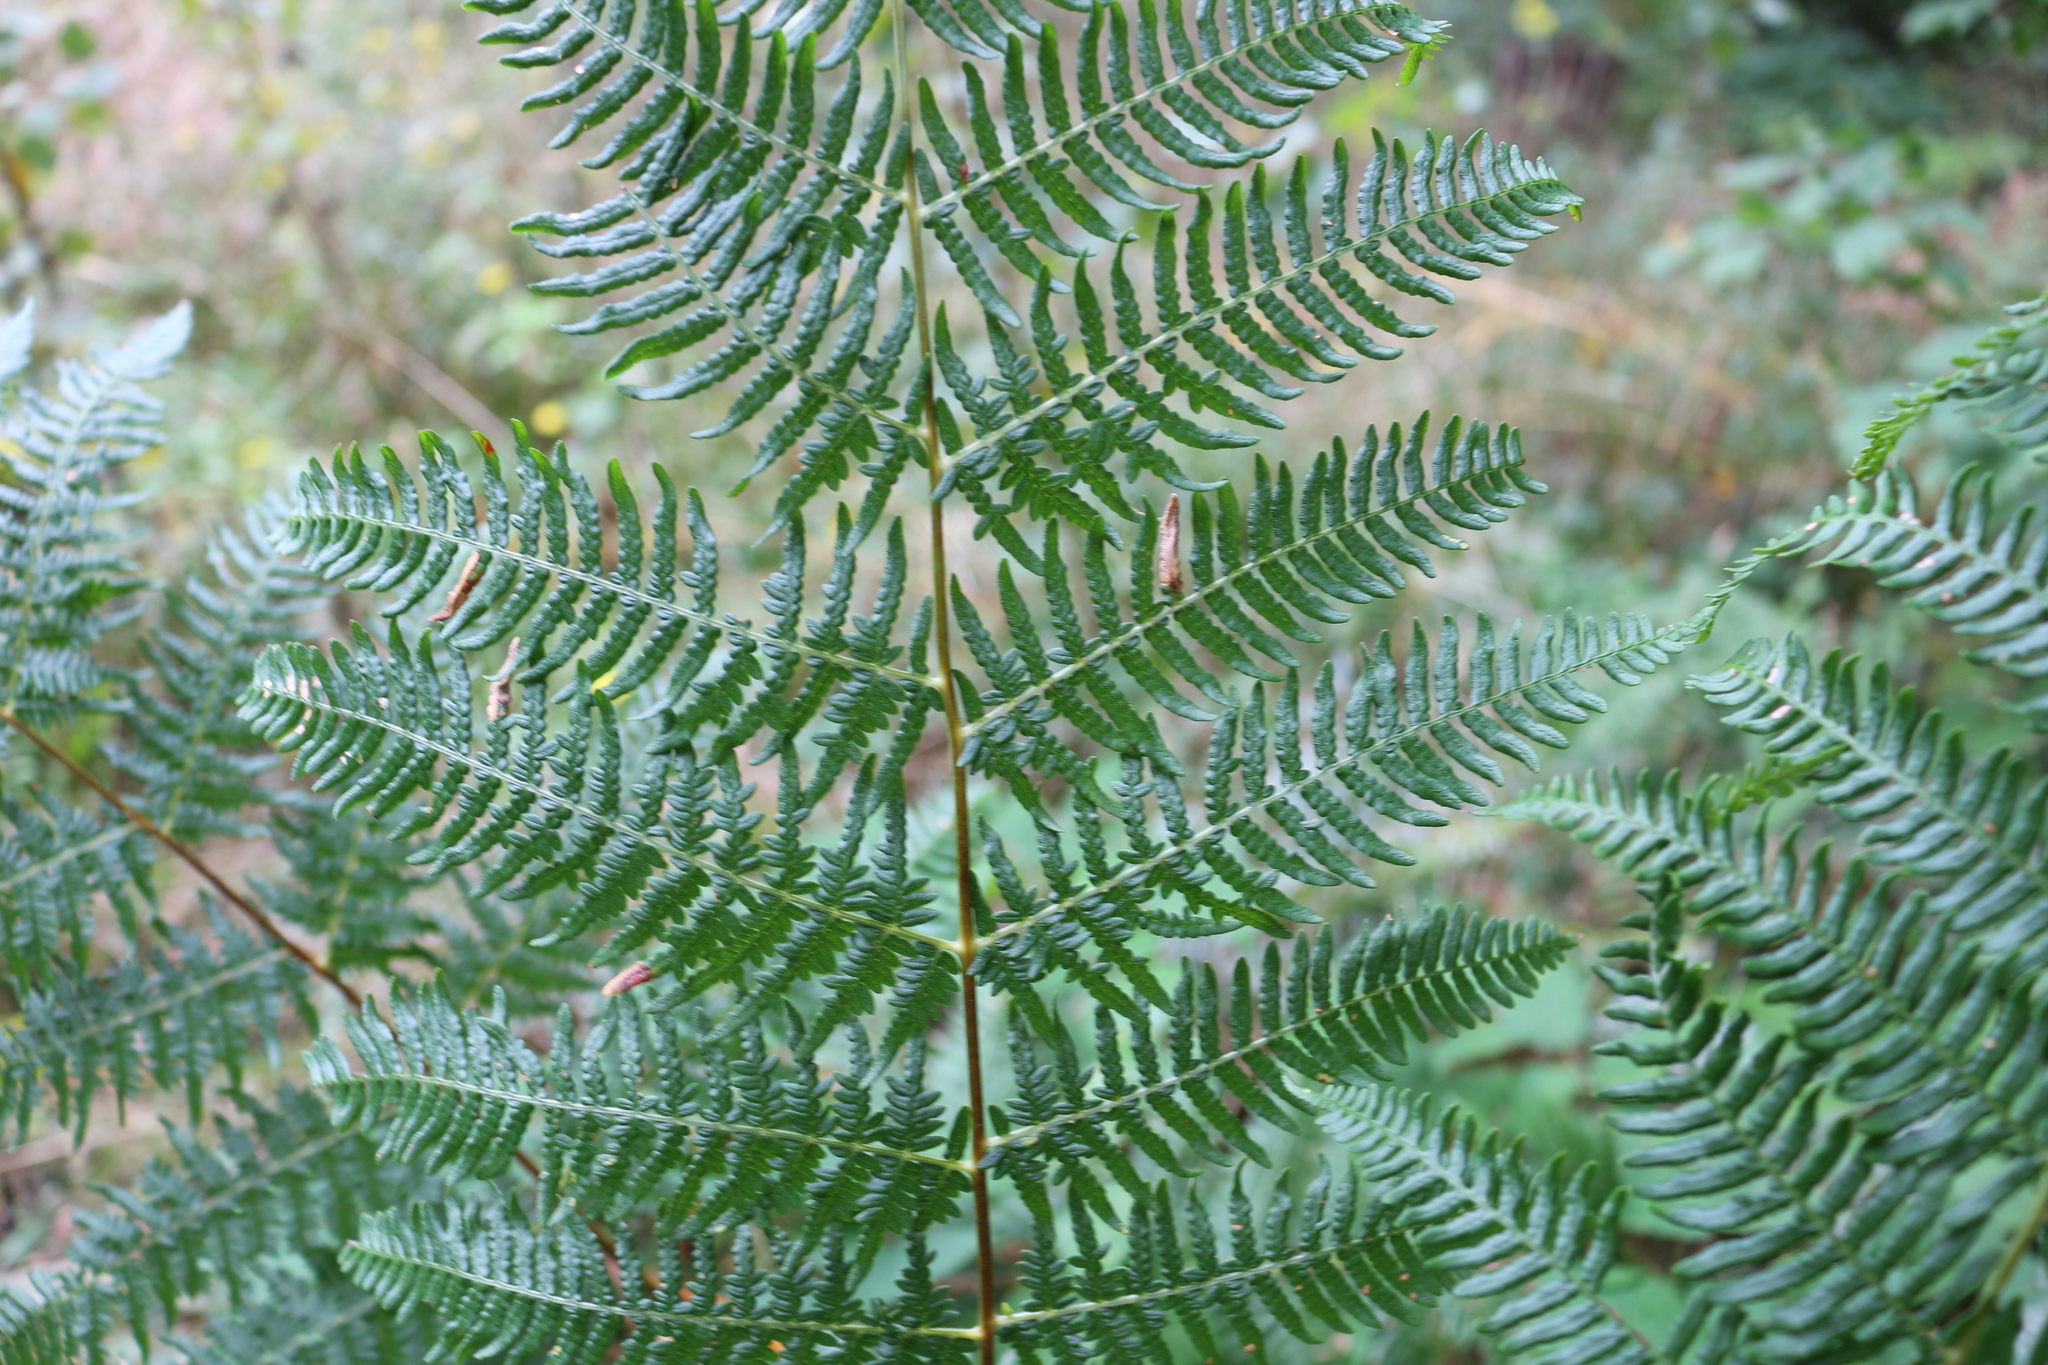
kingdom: Plantae
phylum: Tracheophyta
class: Polypodiopsida
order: Polypodiales
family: Dennstaedtiaceae
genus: Pteridium
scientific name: Pteridium tauricum
